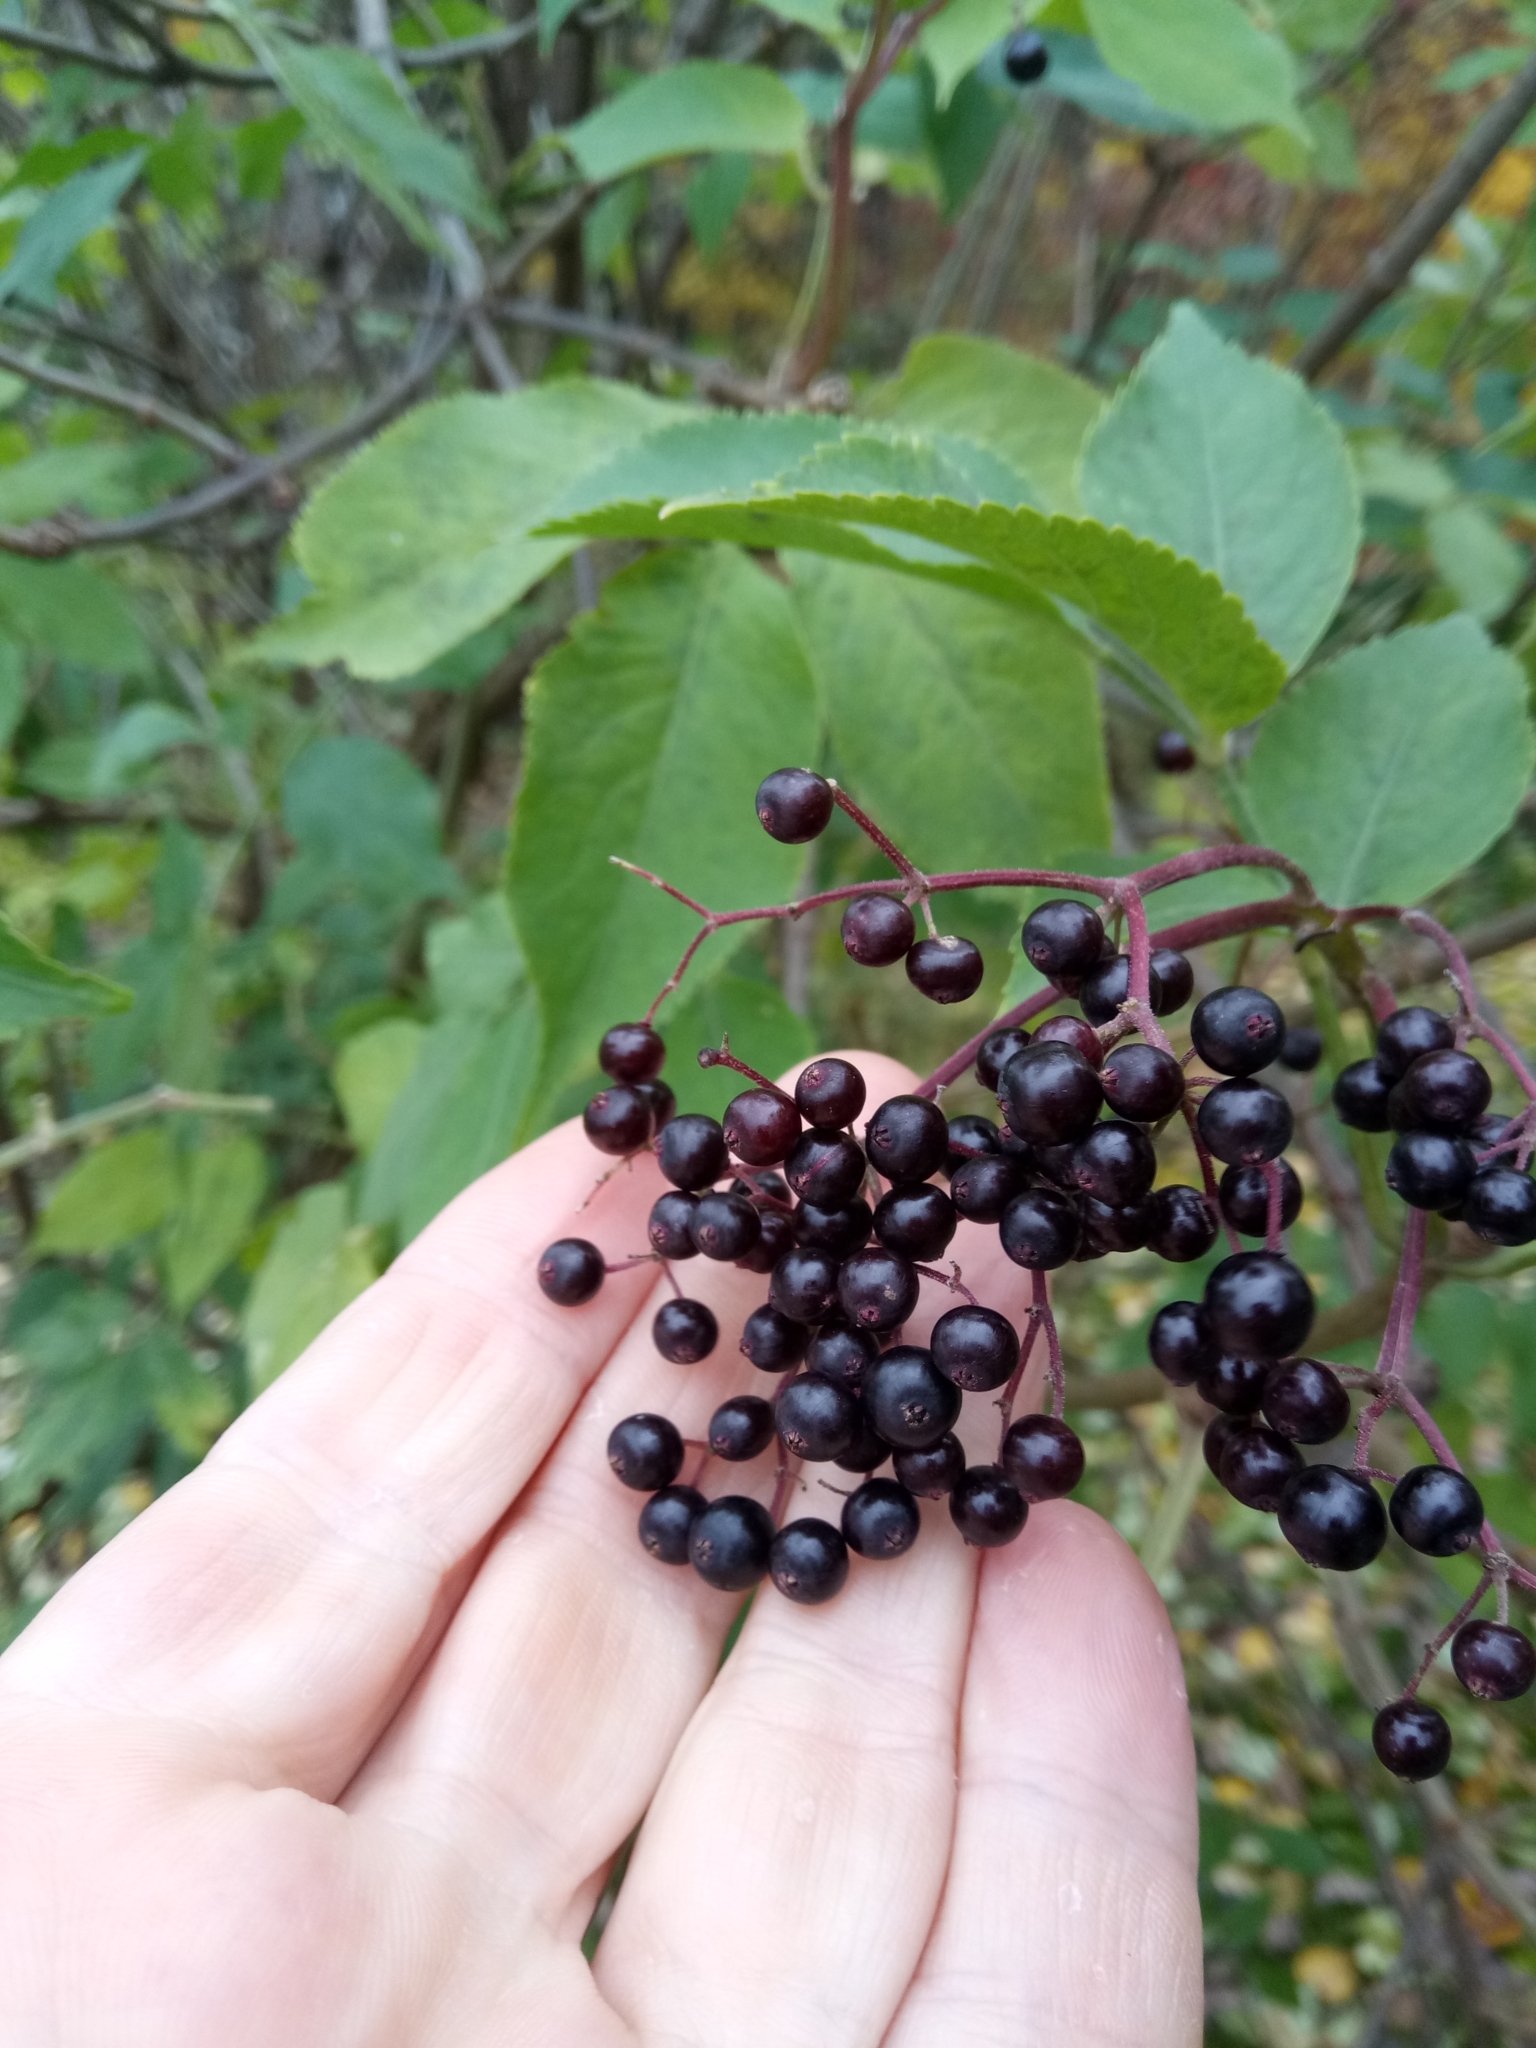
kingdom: Plantae
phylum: Tracheophyta
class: Magnoliopsida
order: Dipsacales
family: Viburnaceae
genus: Sambucus
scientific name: Sambucus nigra
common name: Elder
